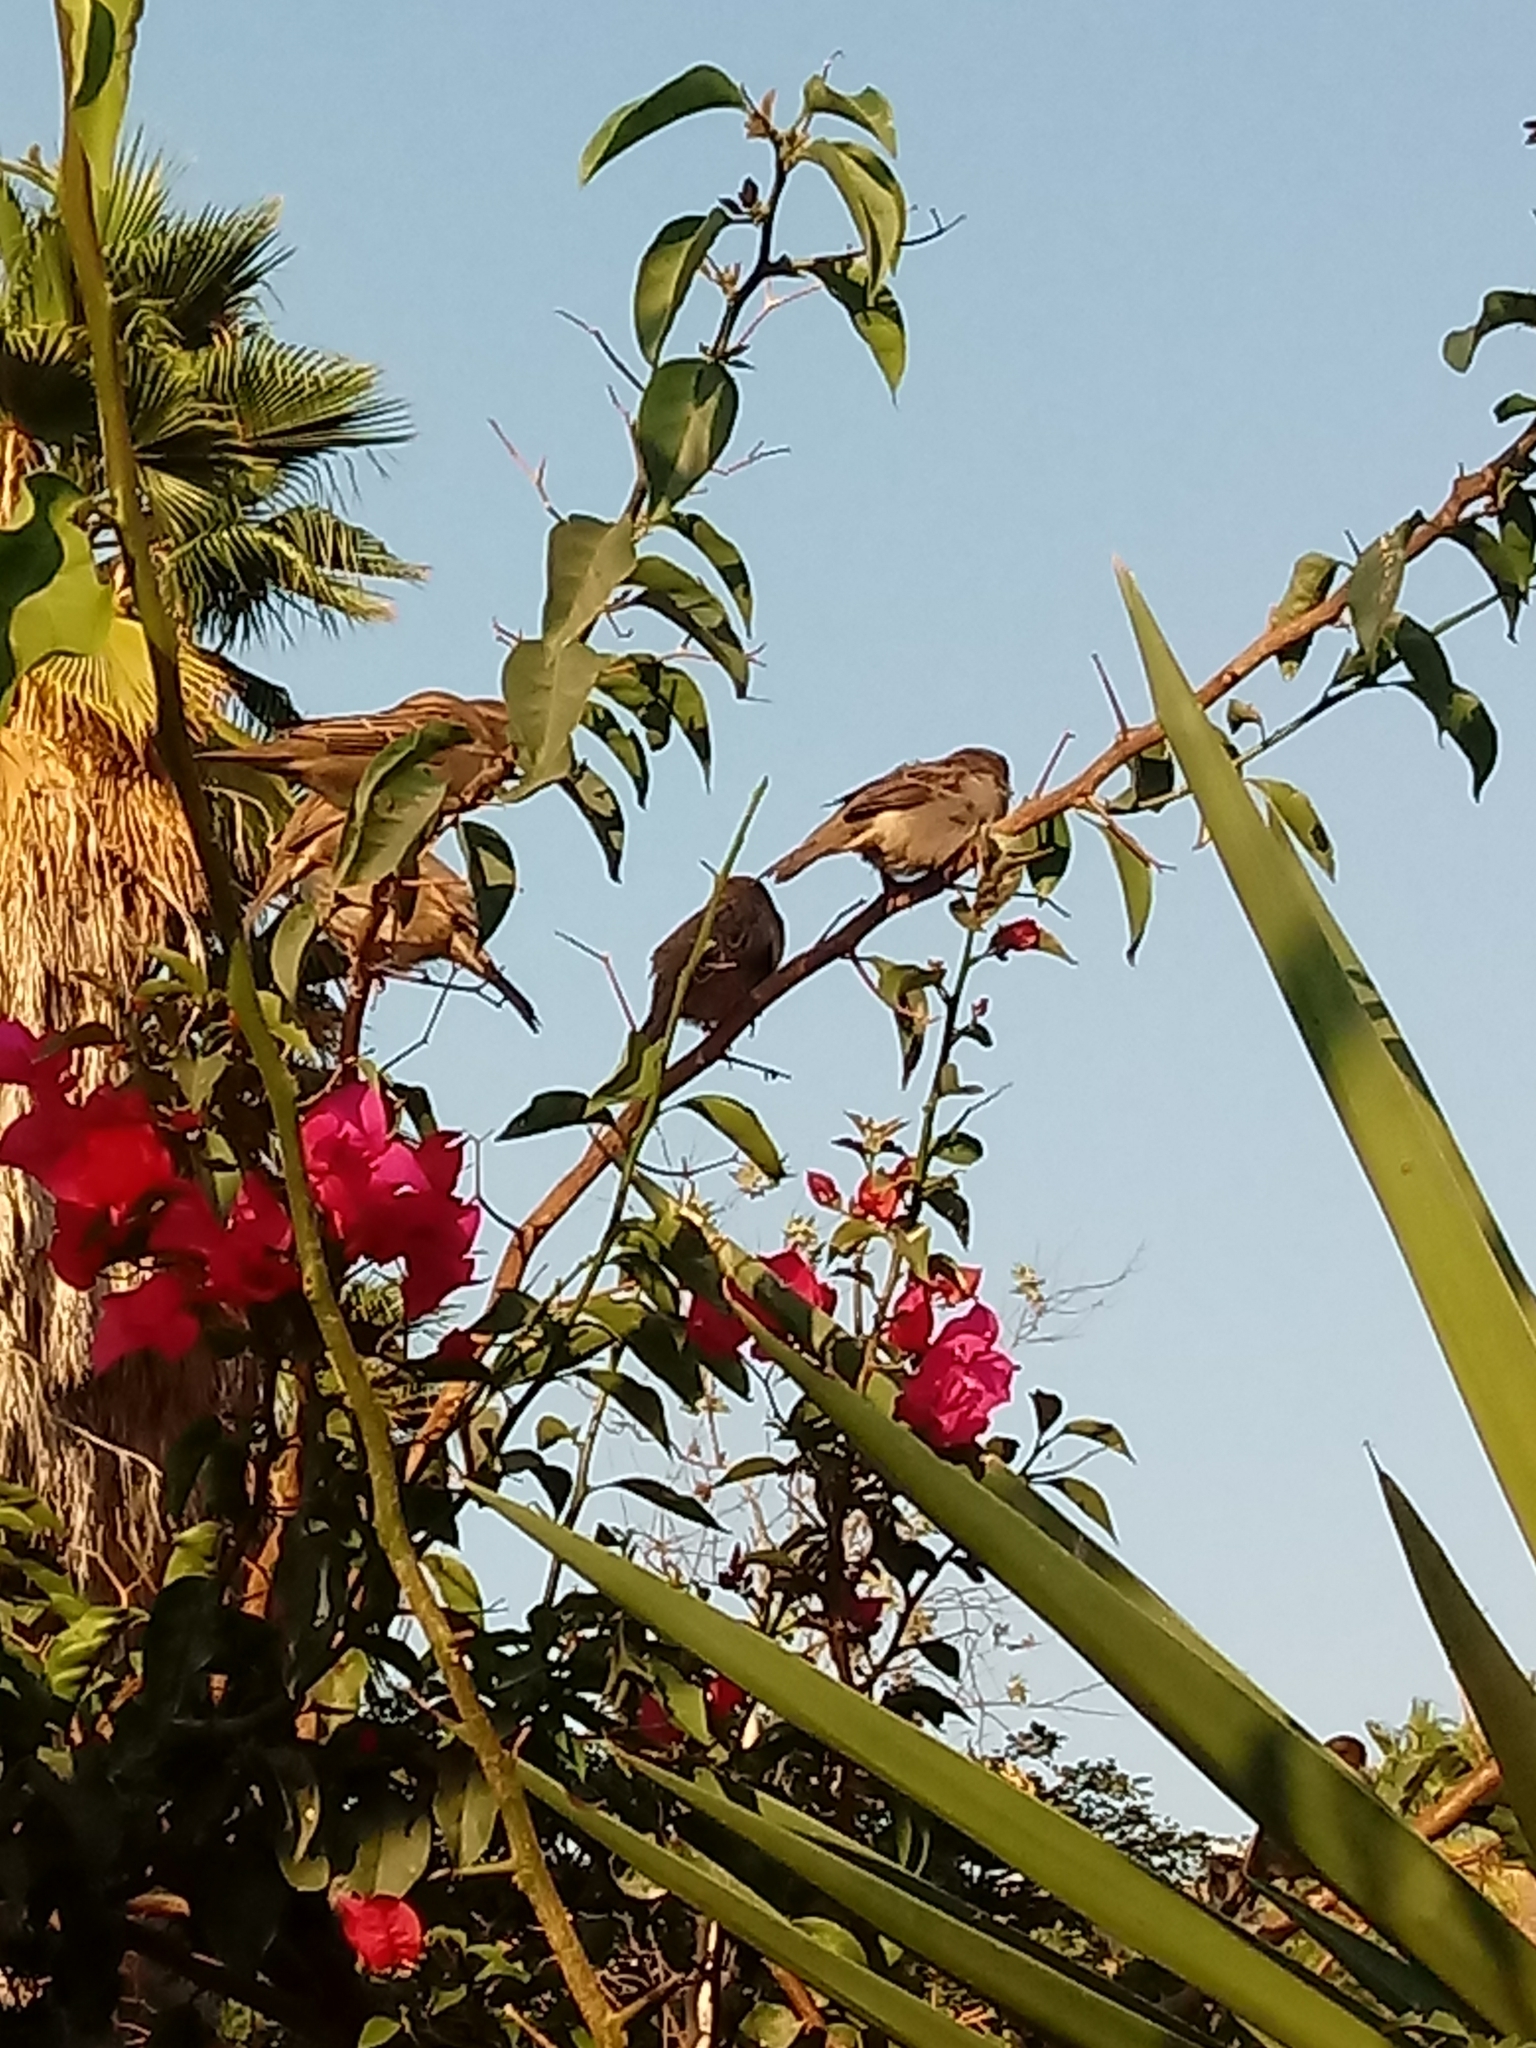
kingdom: Animalia
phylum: Chordata
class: Aves
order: Passeriformes
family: Passeridae
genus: Passer
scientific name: Passer domesticus
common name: House sparrow
